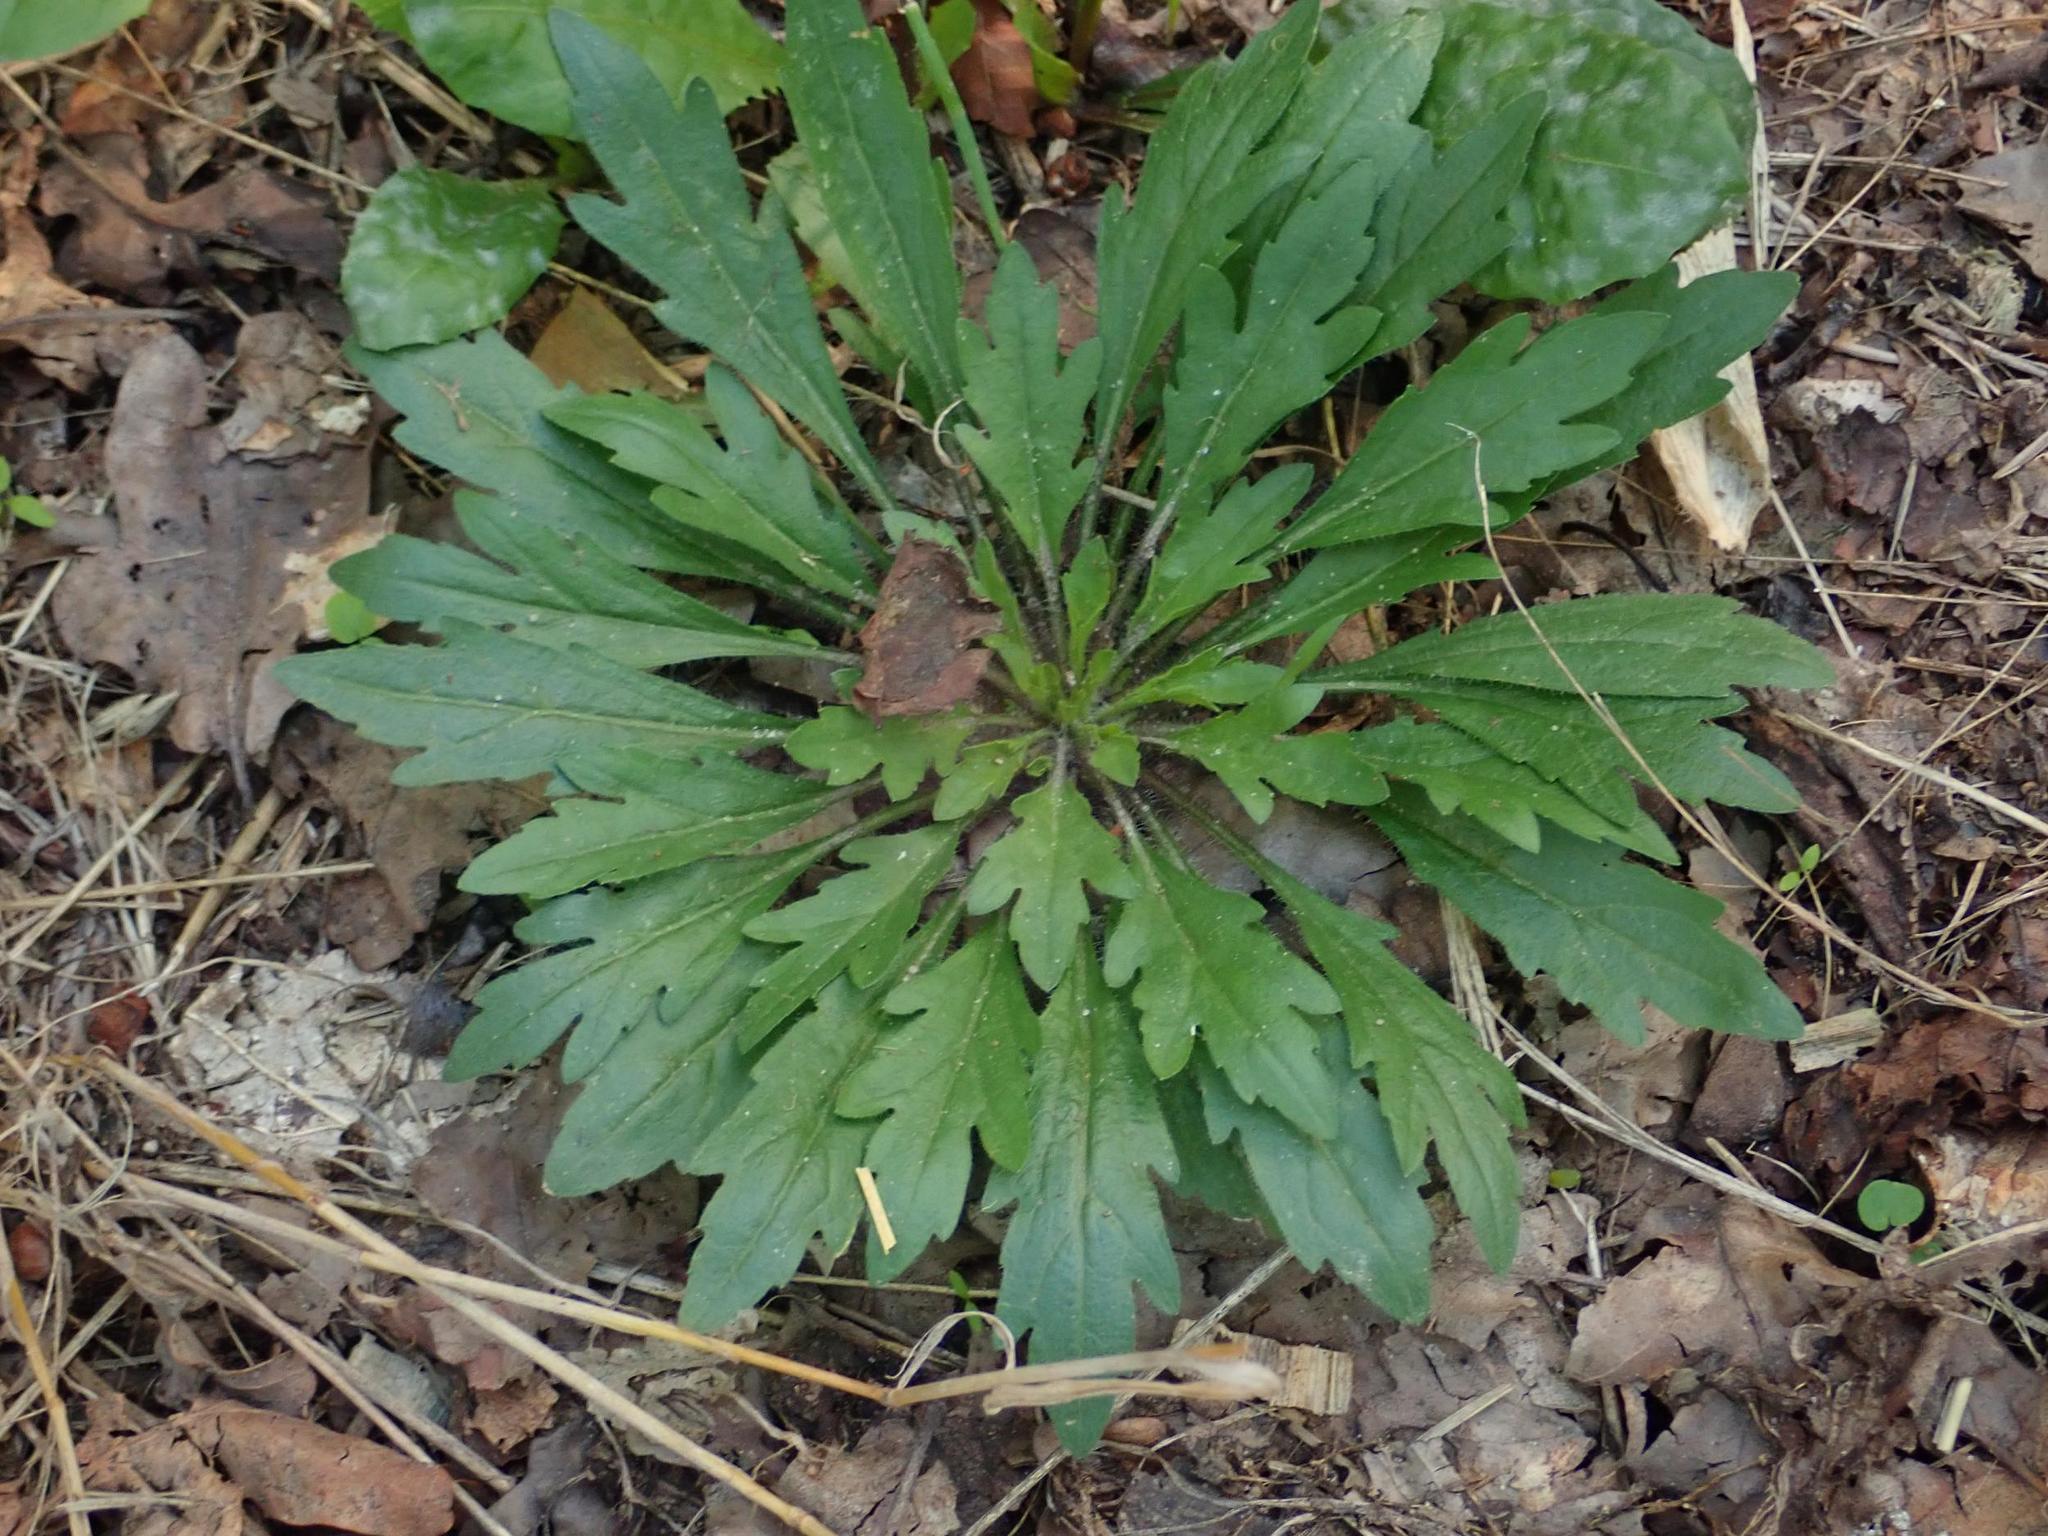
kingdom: Plantae
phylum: Tracheophyta
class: Magnoliopsida
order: Asterales
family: Asteraceae
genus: Erigeron
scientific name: Erigeron canadensis
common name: Canadian fleabane
